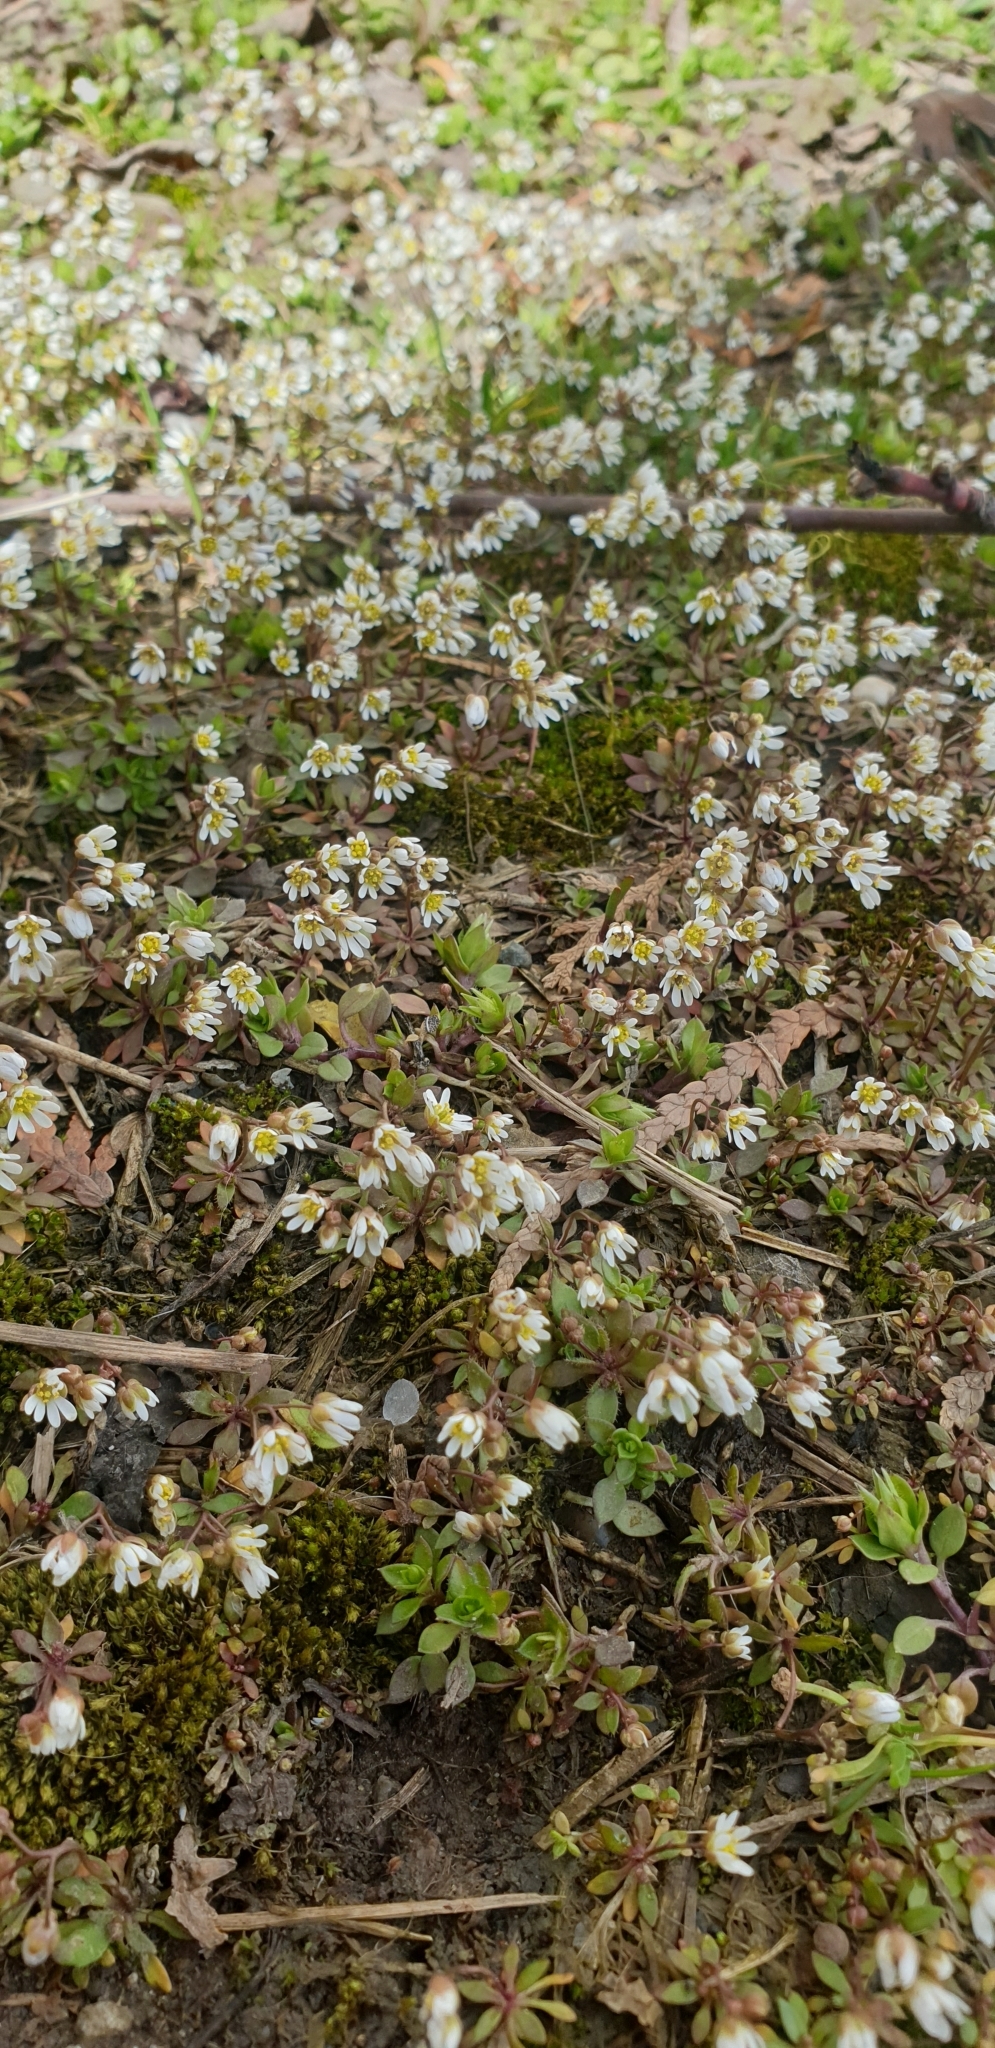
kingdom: Plantae
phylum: Tracheophyta
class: Magnoliopsida
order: Brassicales
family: Brassicaceae
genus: Draba
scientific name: Draba verna
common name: Spring draba
